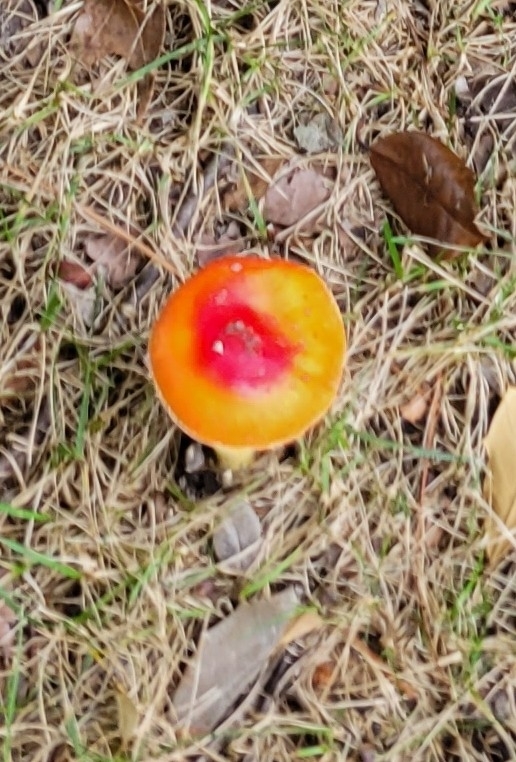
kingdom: Fungi
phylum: Basidiomycota
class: Agaricomycetes
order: Agaricales
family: Amanitaceae
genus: Amanita
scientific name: Amanita parcivolvata
